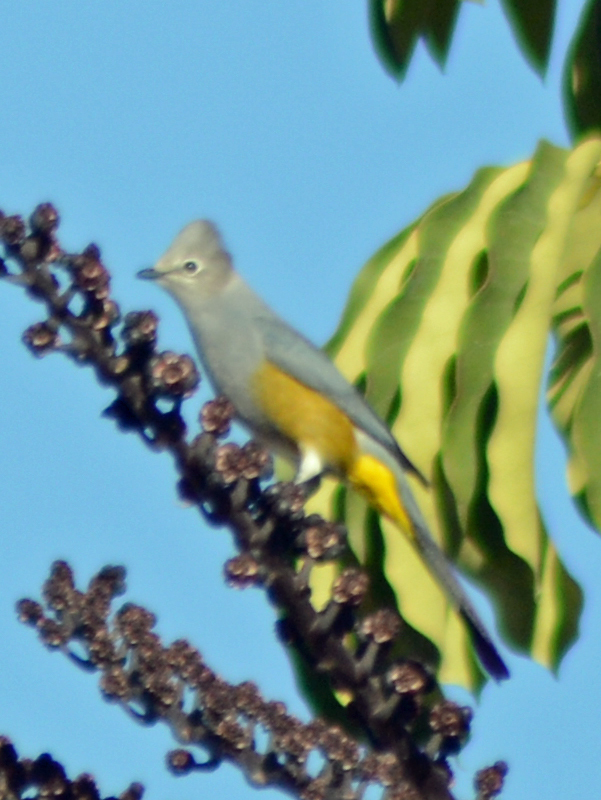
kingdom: Animalia
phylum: Chordata
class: Aves
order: Passeriformes
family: Ptilogonatidae
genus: Ptilogonys
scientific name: Ptilogonys cinereus
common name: Gray silky-flycatcher
